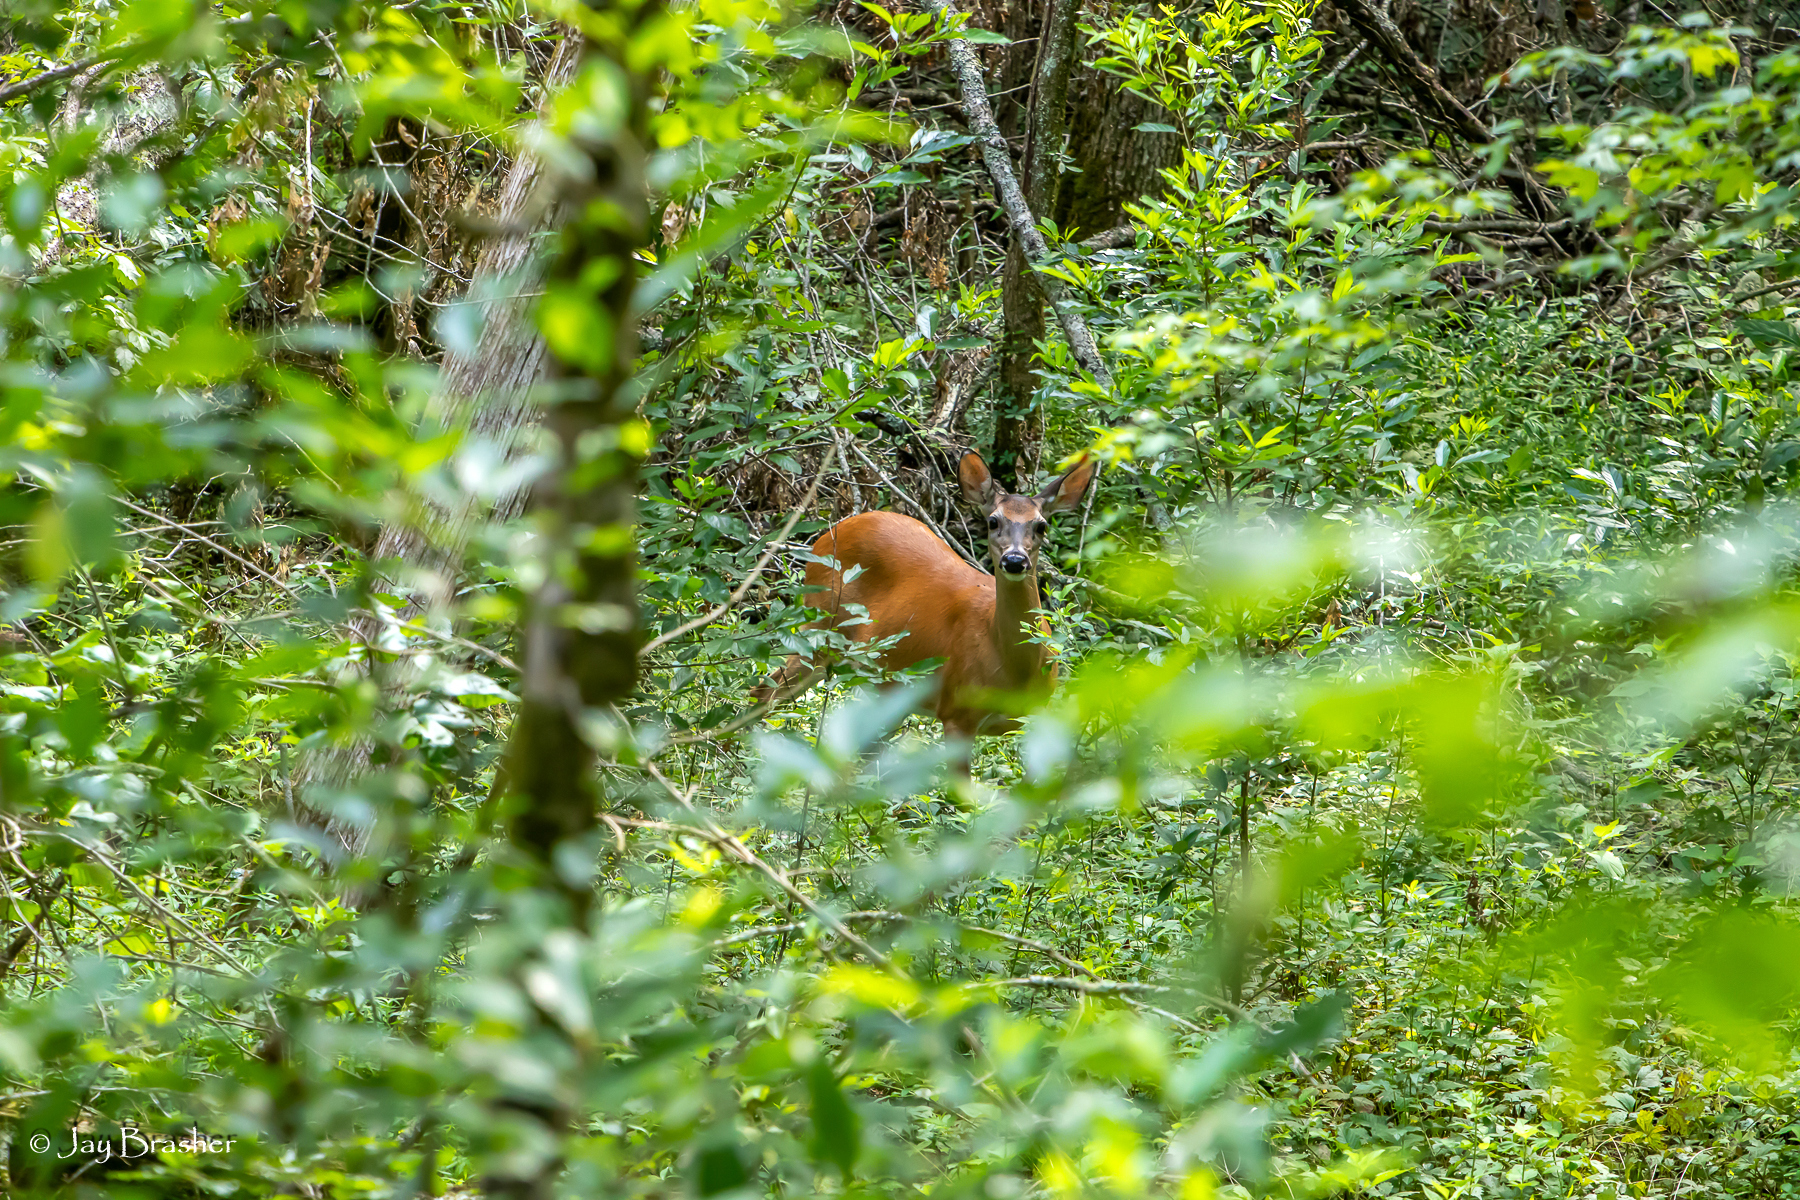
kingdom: Animalia
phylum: Chordata
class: Mammalia
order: Artiodactyla
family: Cervidae
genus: Odocoileus
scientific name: Odocoileus virginianus
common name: White-tailed deer
